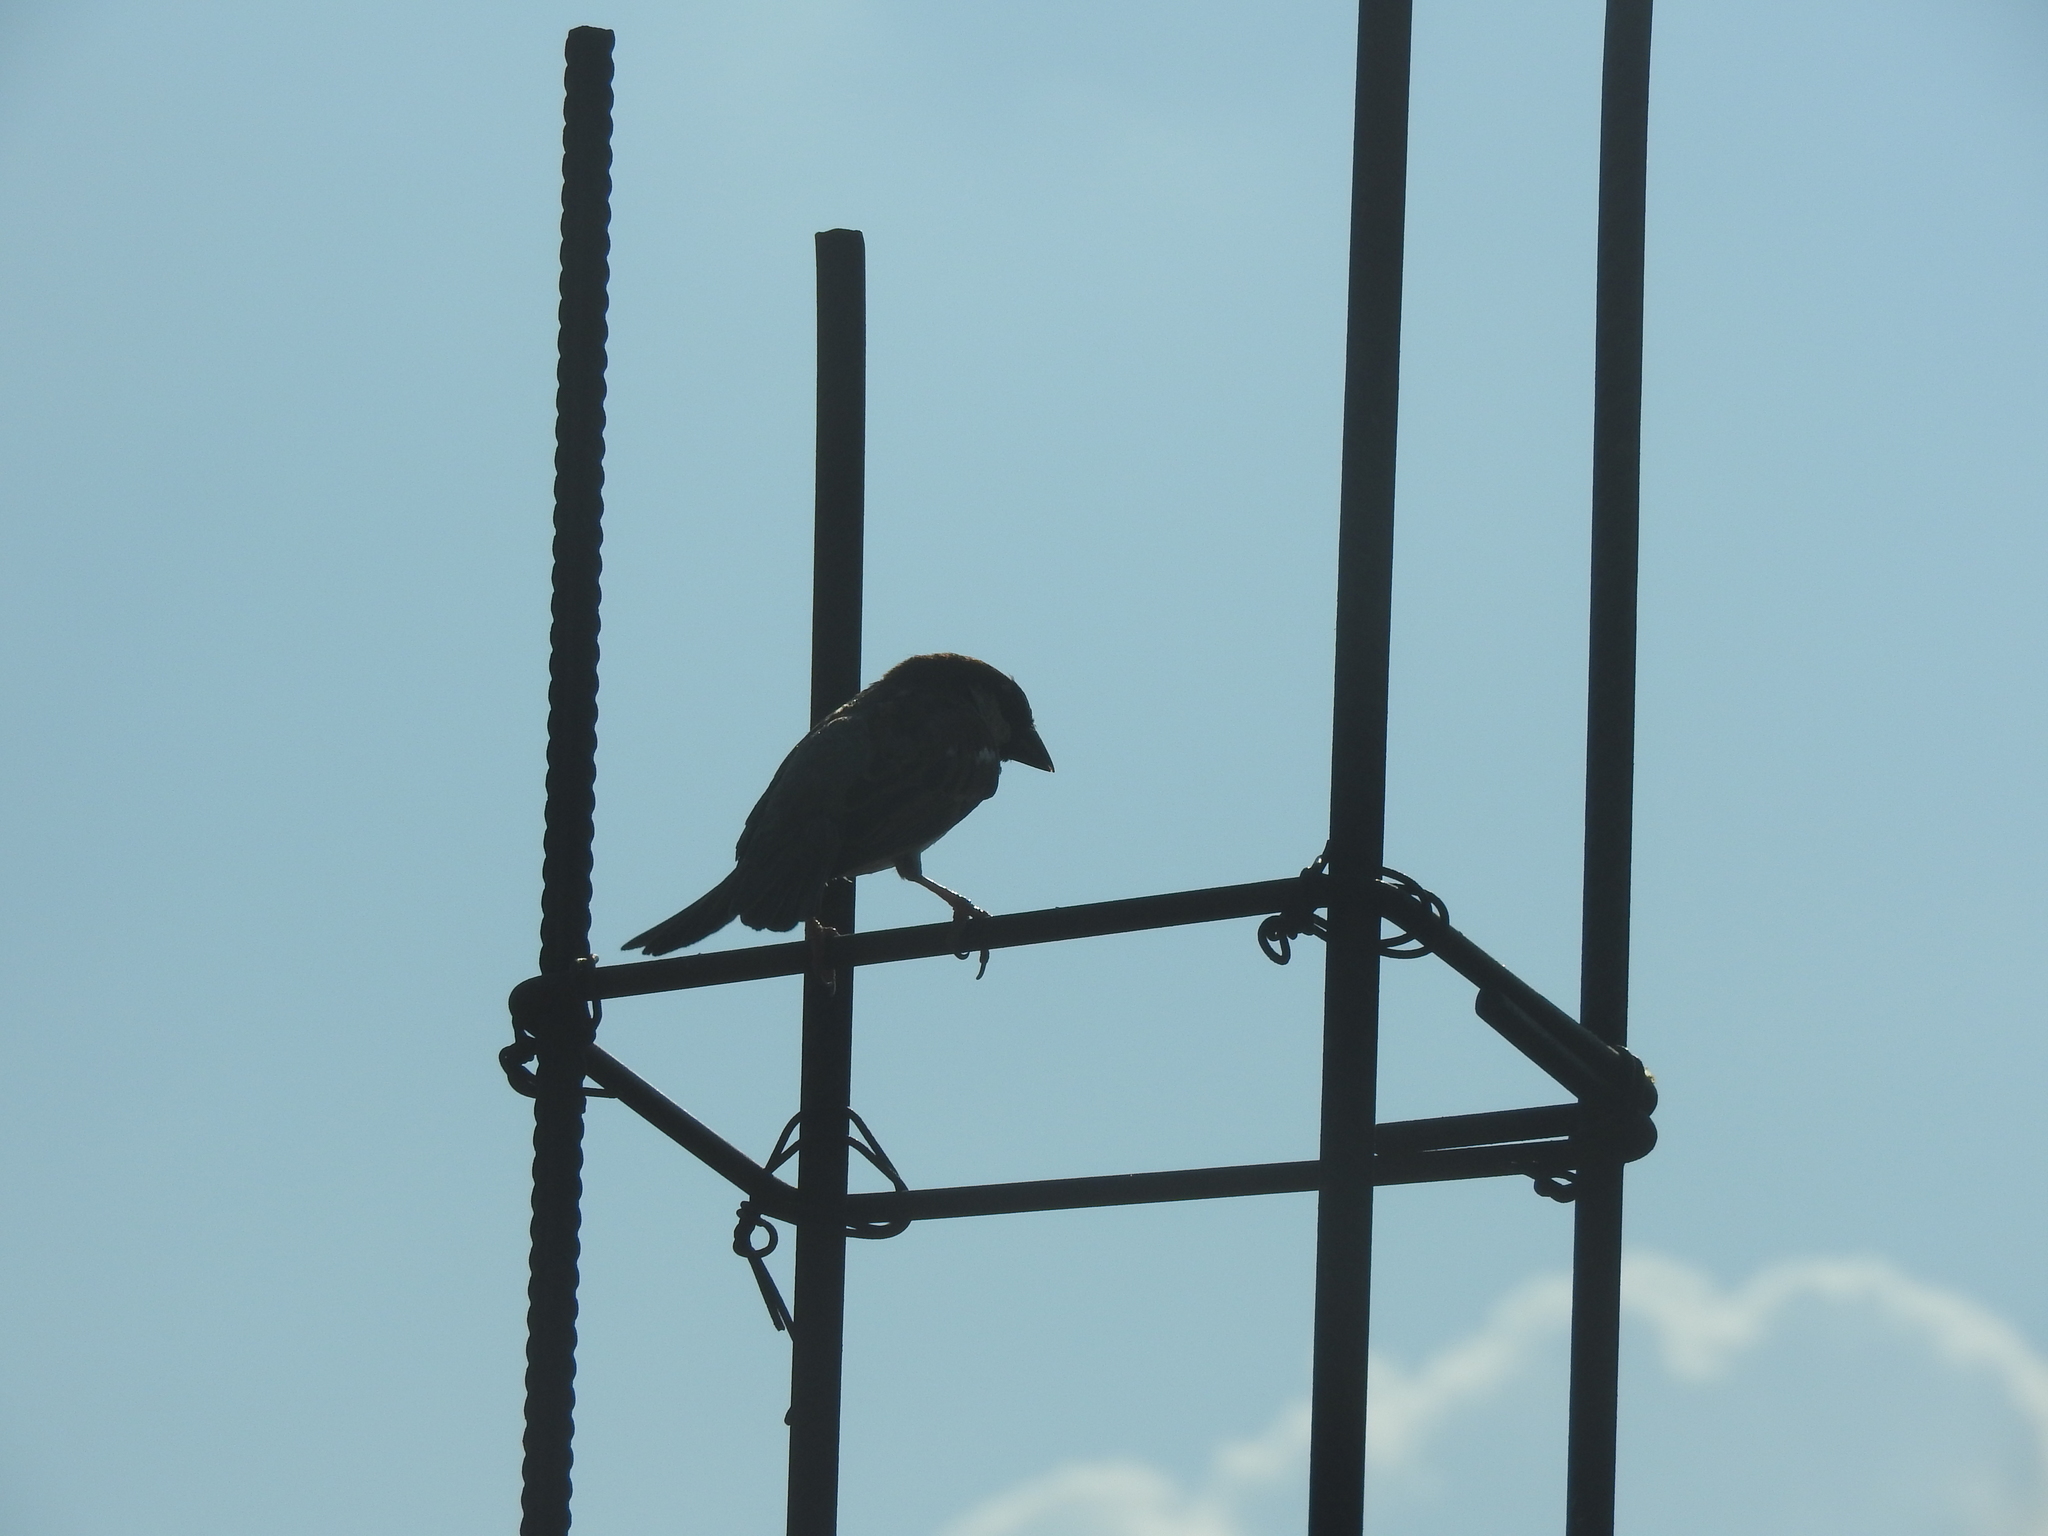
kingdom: Animalia
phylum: Chordata
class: Aves
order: Passeriformes
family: Fringillidae
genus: Haemorhous
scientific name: Haemorhous mexicanus
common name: House finch
